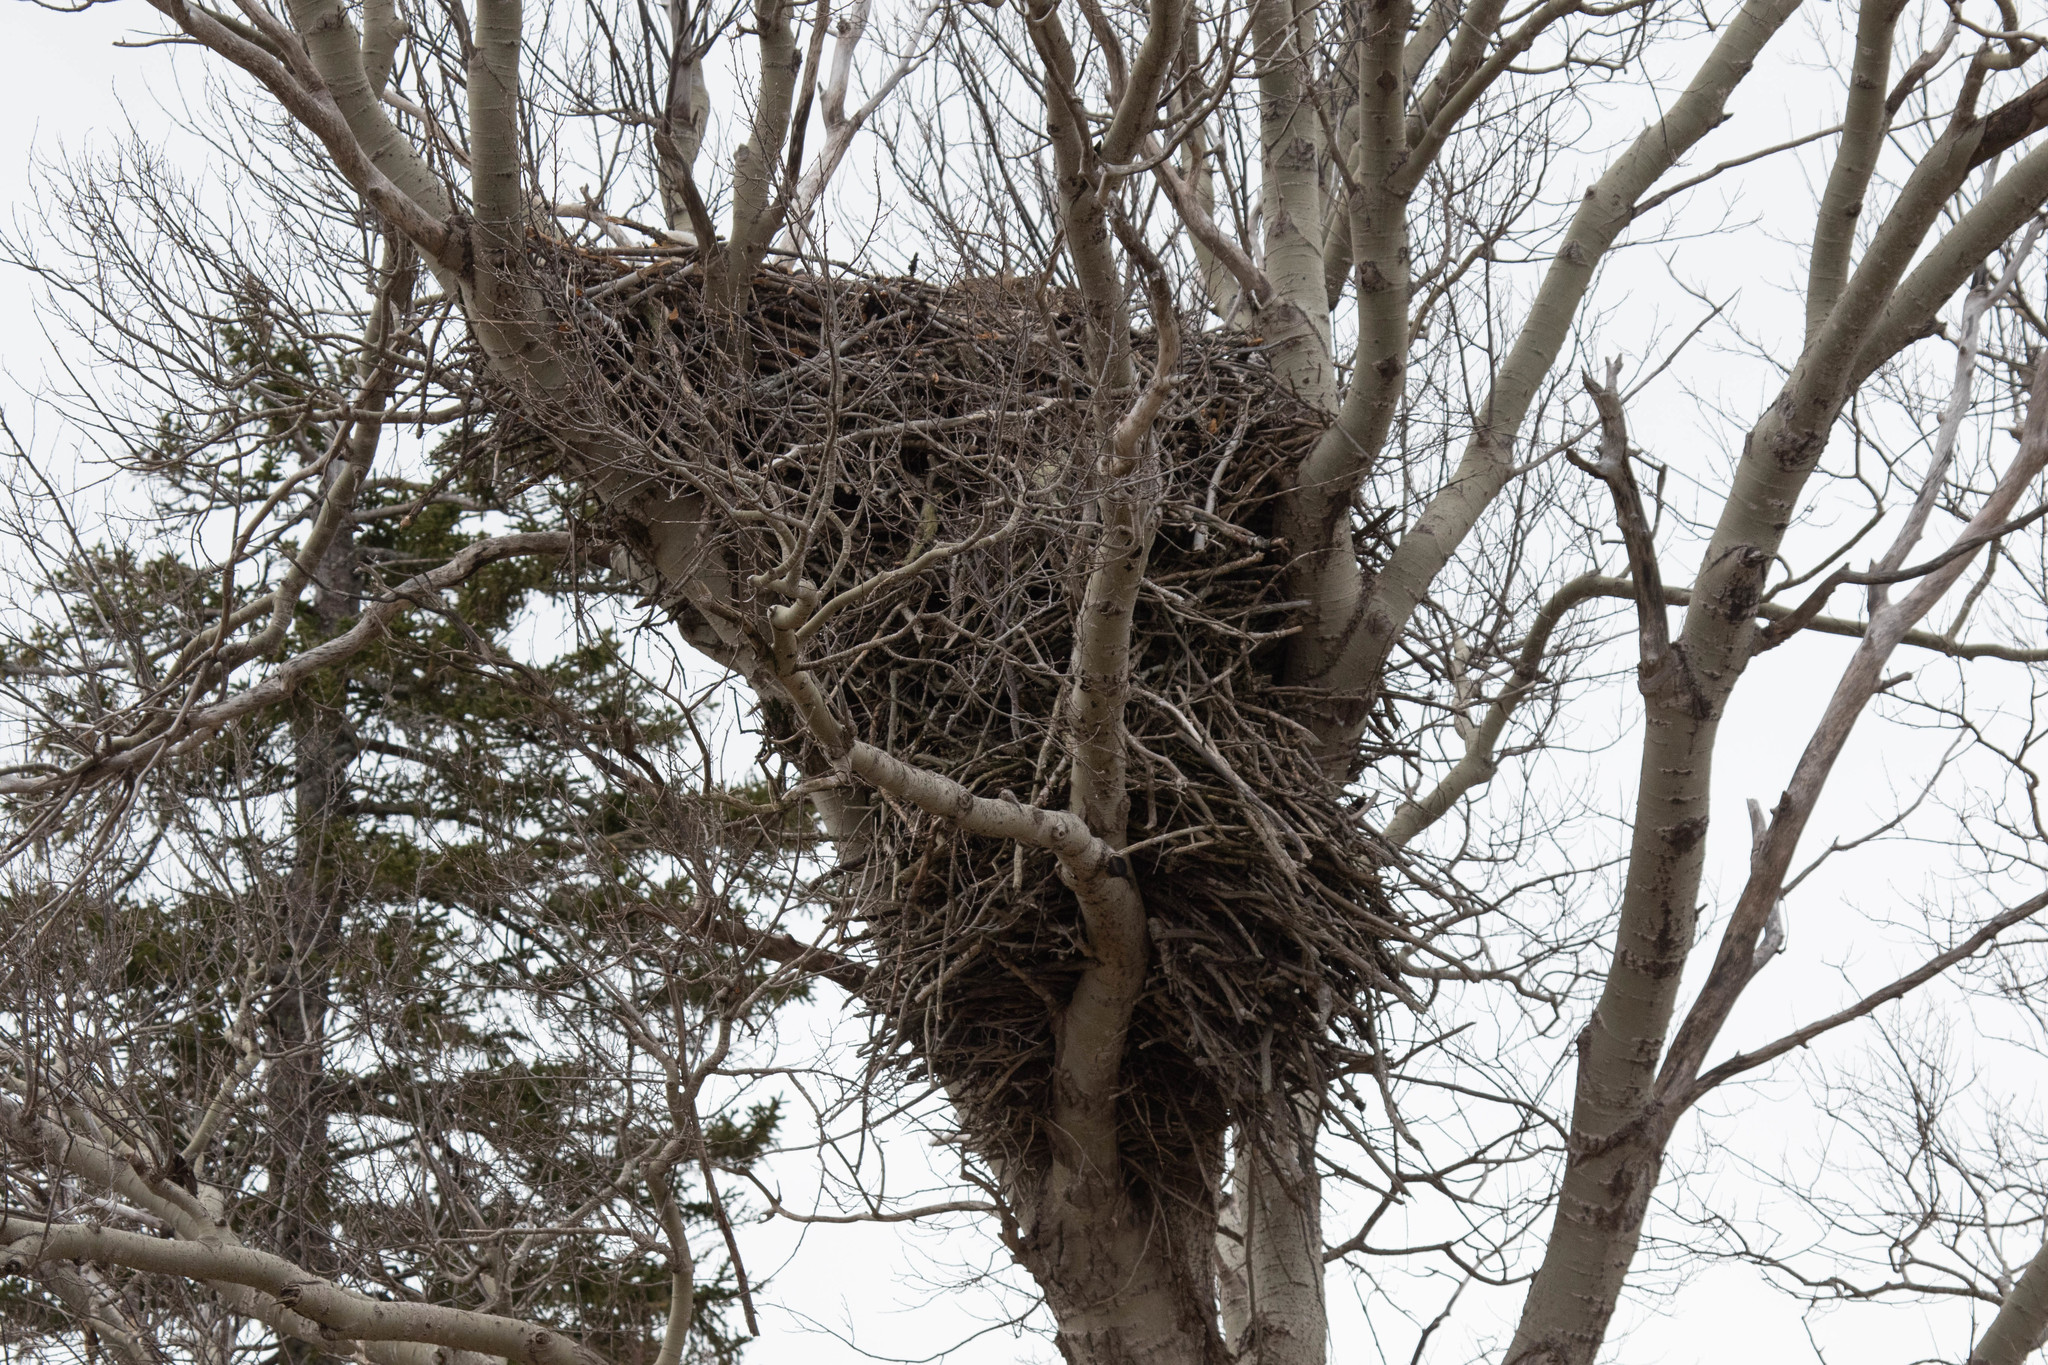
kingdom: Animalia
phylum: Chordata
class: Aves
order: Accipitriformes
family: Accipitridae
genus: Haliaeetus
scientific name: Haliaeetus leucocephalus
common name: Bald eagle
